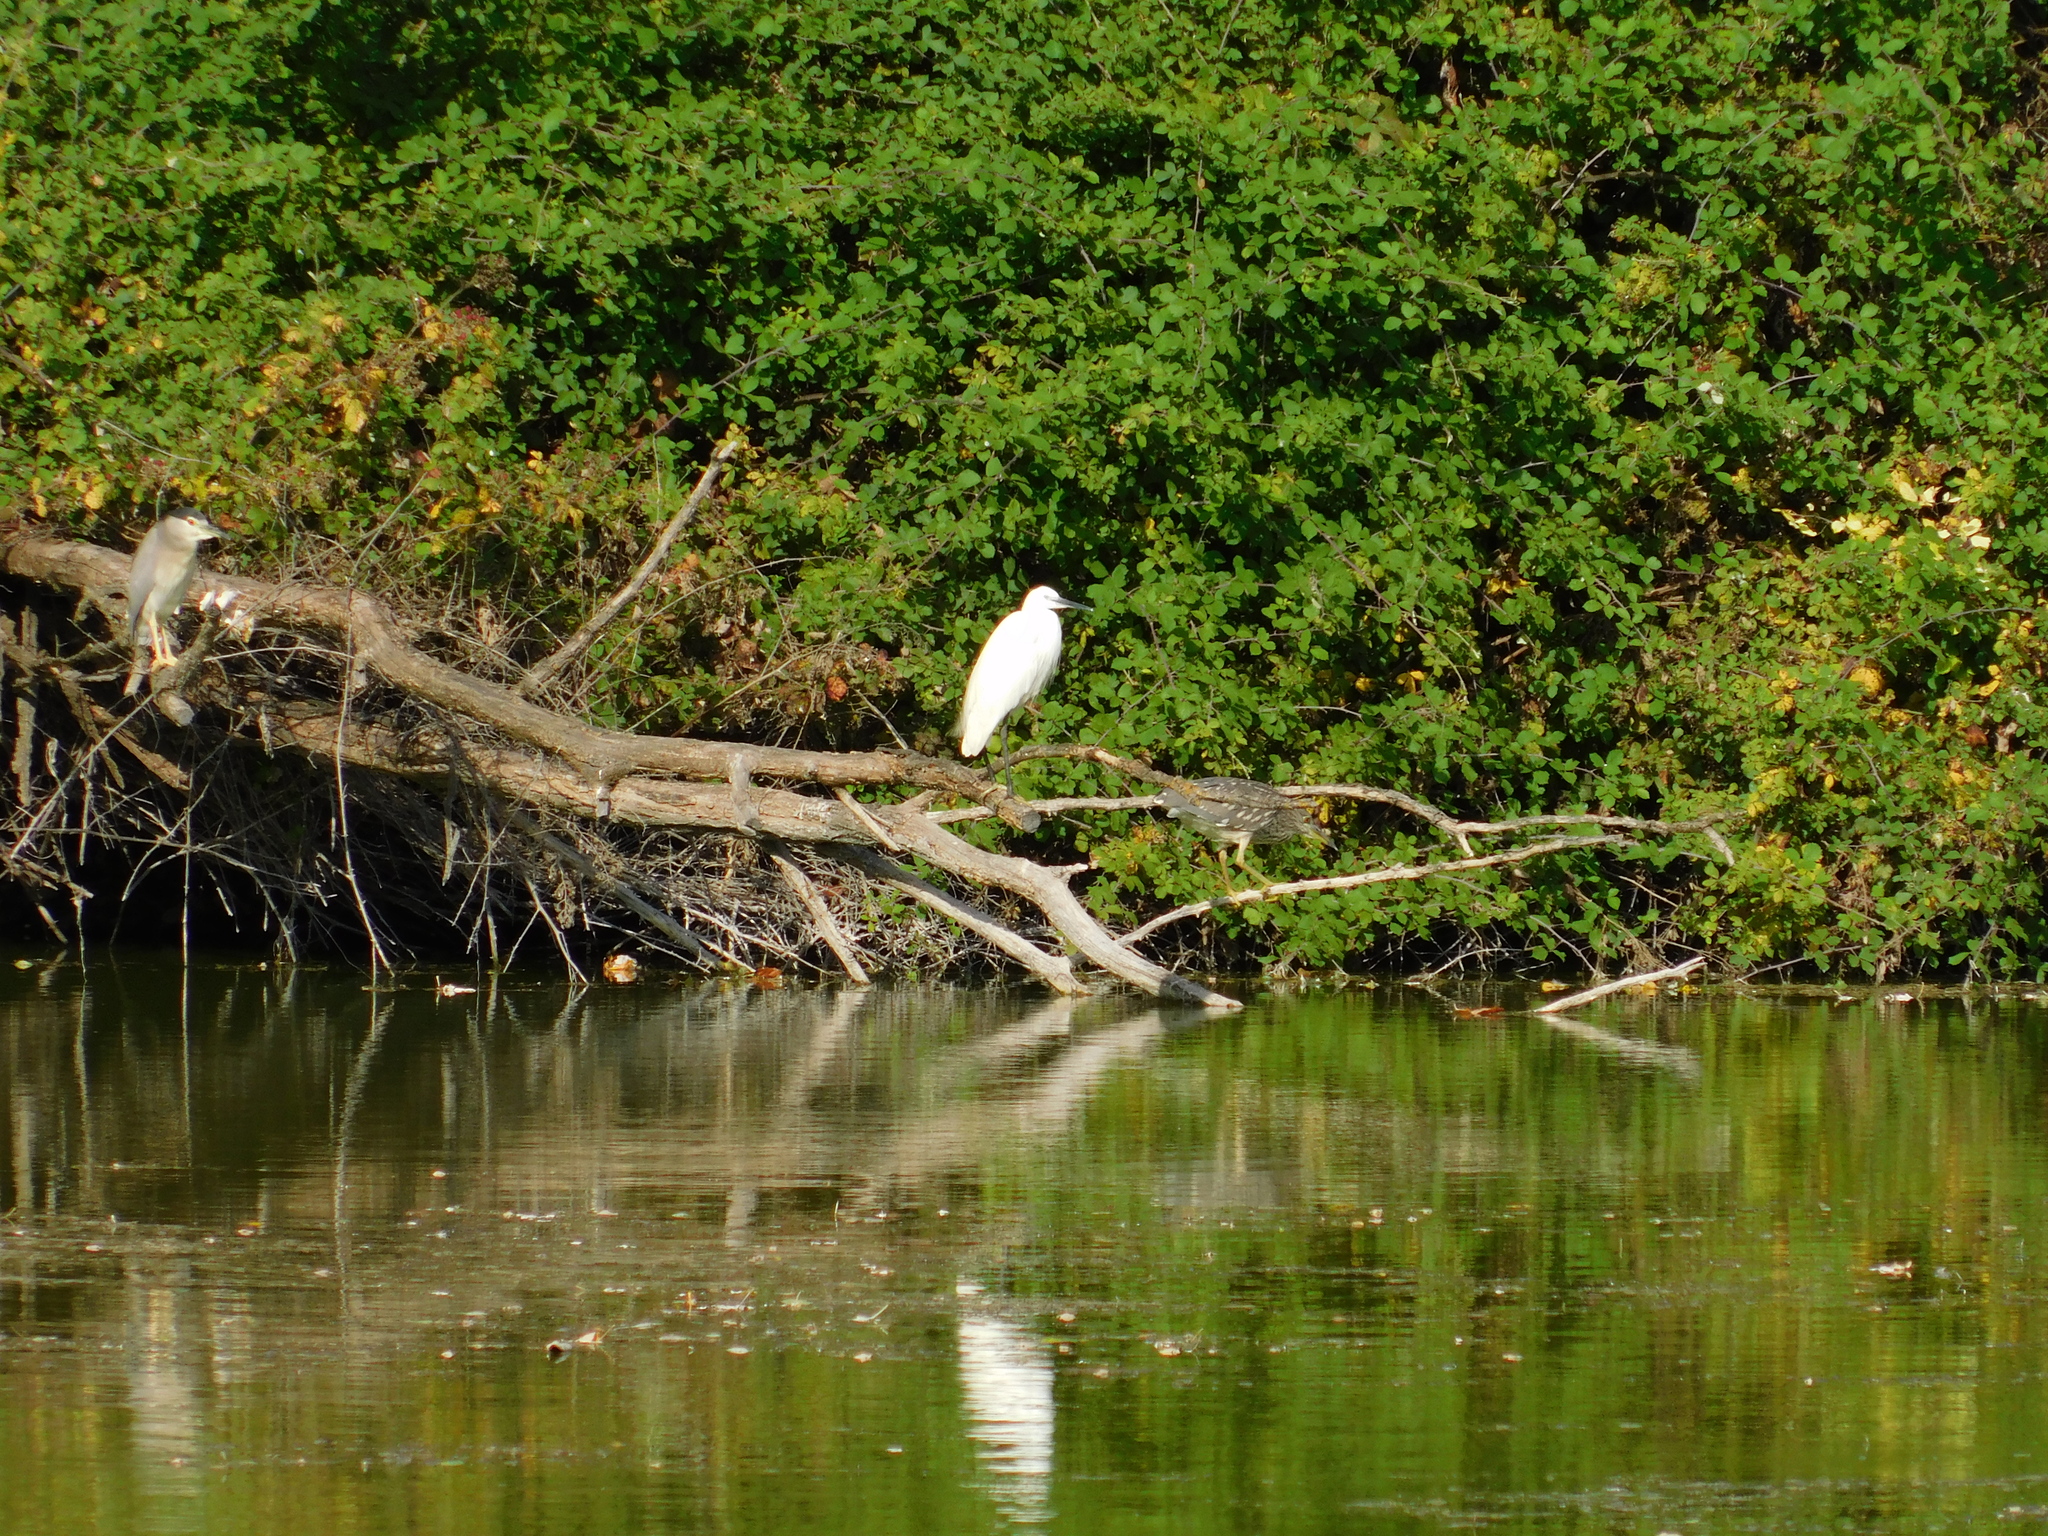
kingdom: Animalia
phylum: Chordata
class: Aves
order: Pelecaniformes
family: Ardeidae
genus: Egretta
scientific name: Egretta garzetta
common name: Little egret
